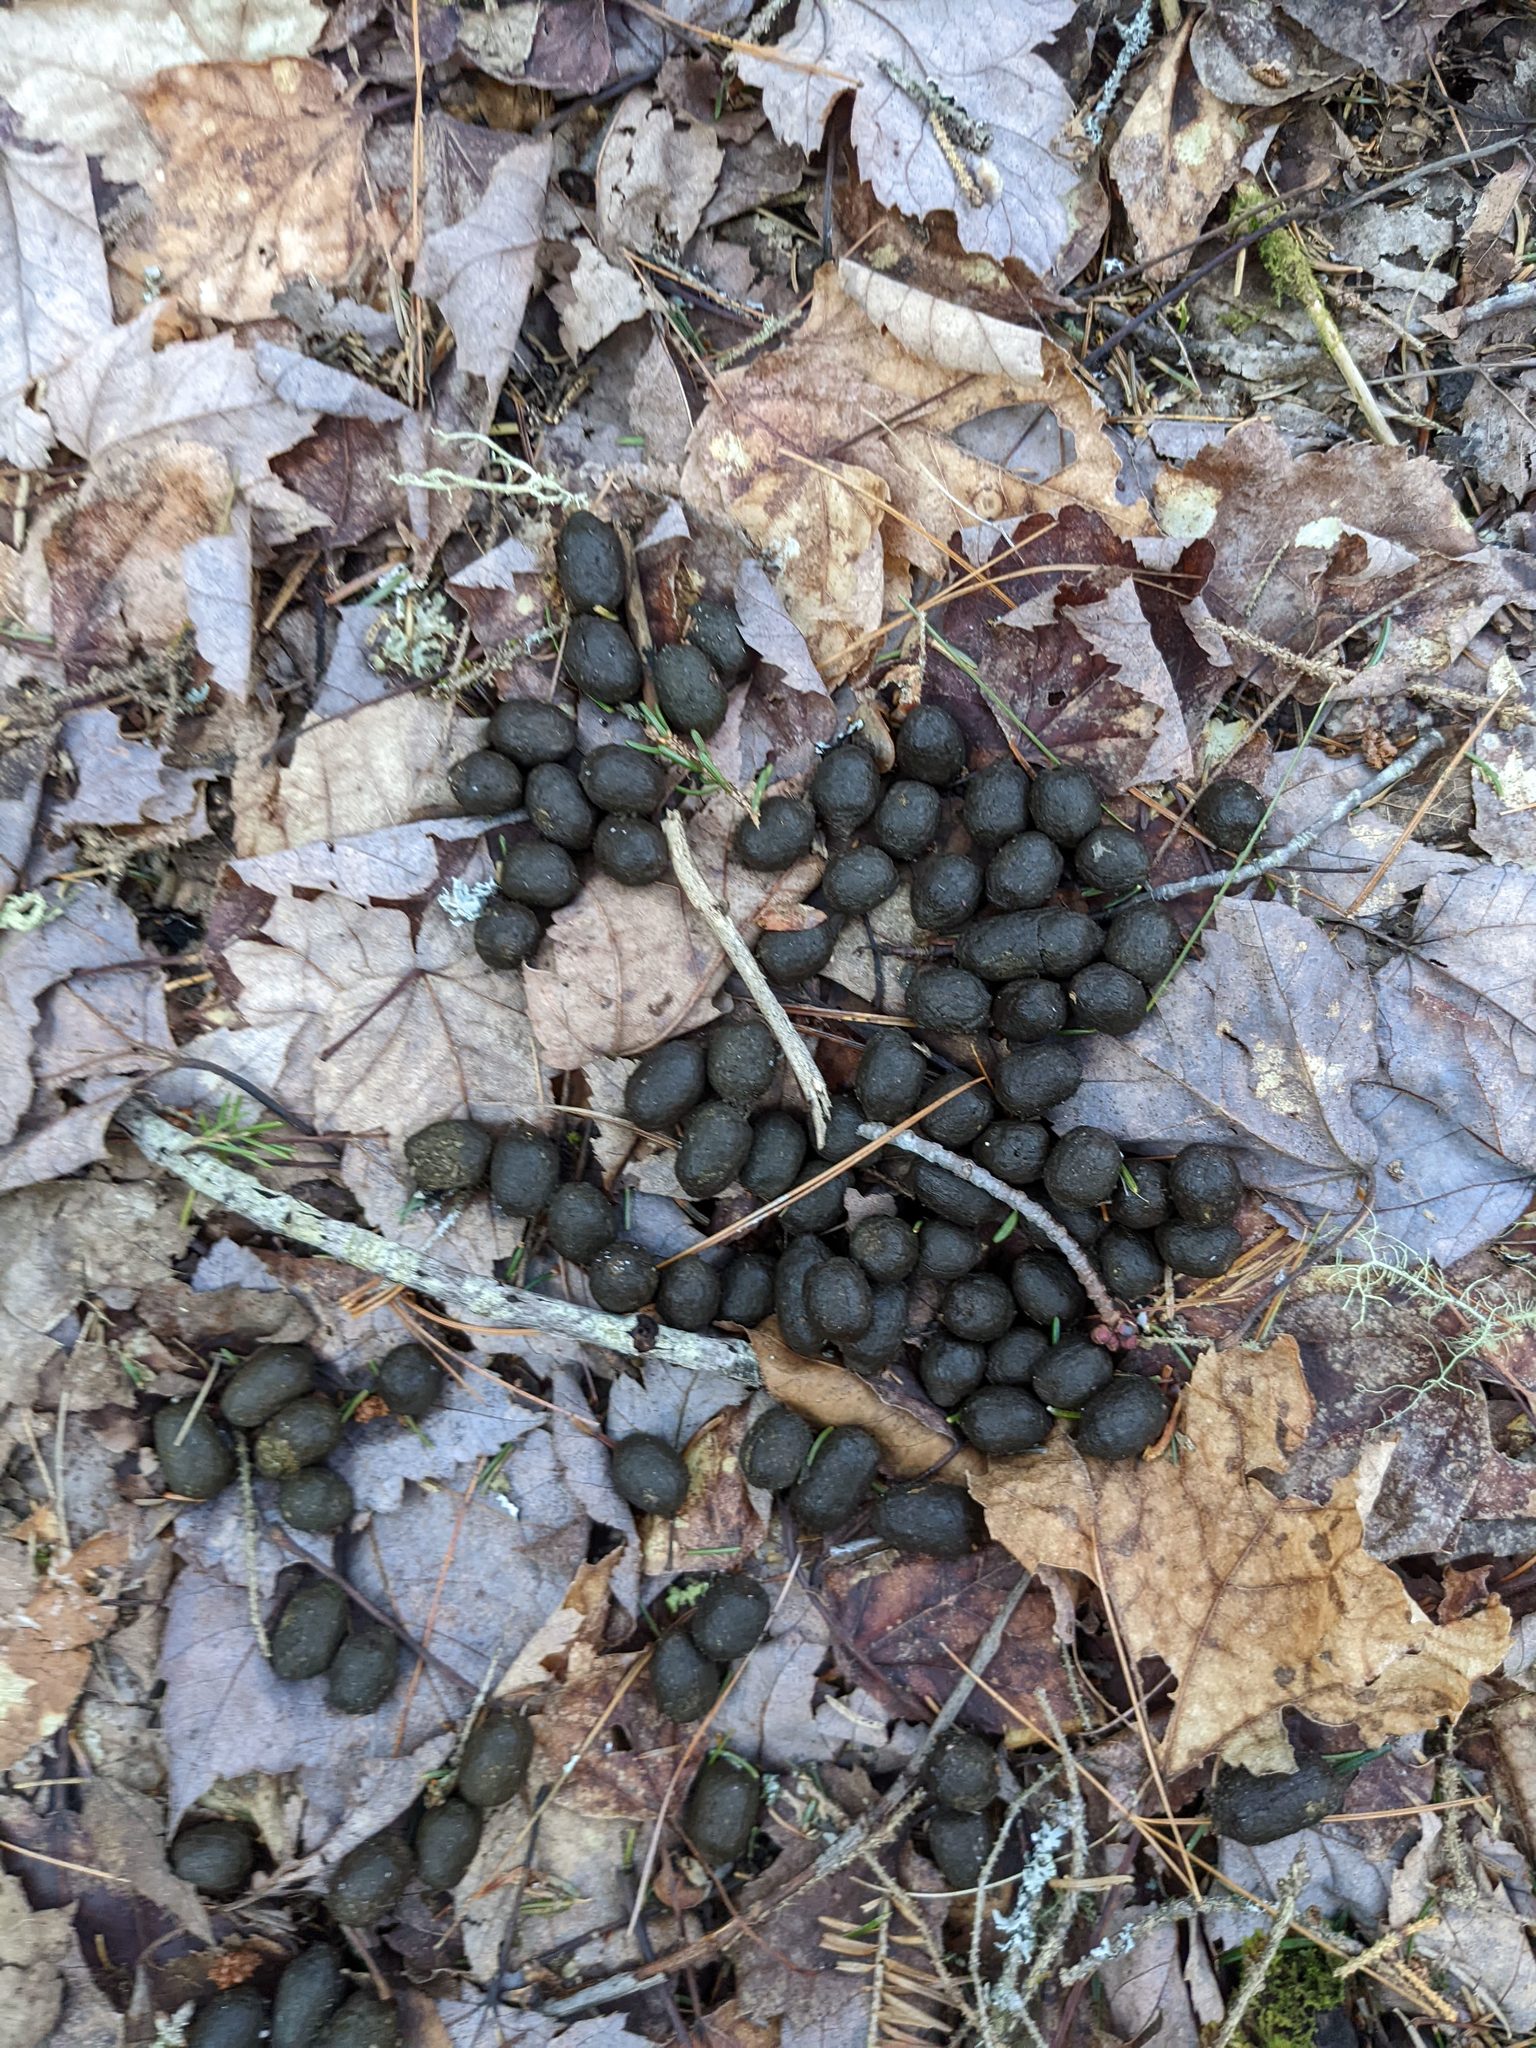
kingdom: Animalia
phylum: Chordata
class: Mammalia
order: Artiodactyla
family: Cervidae
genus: Odocoileus
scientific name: Odocoileus virginianus
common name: White-tailed deer
